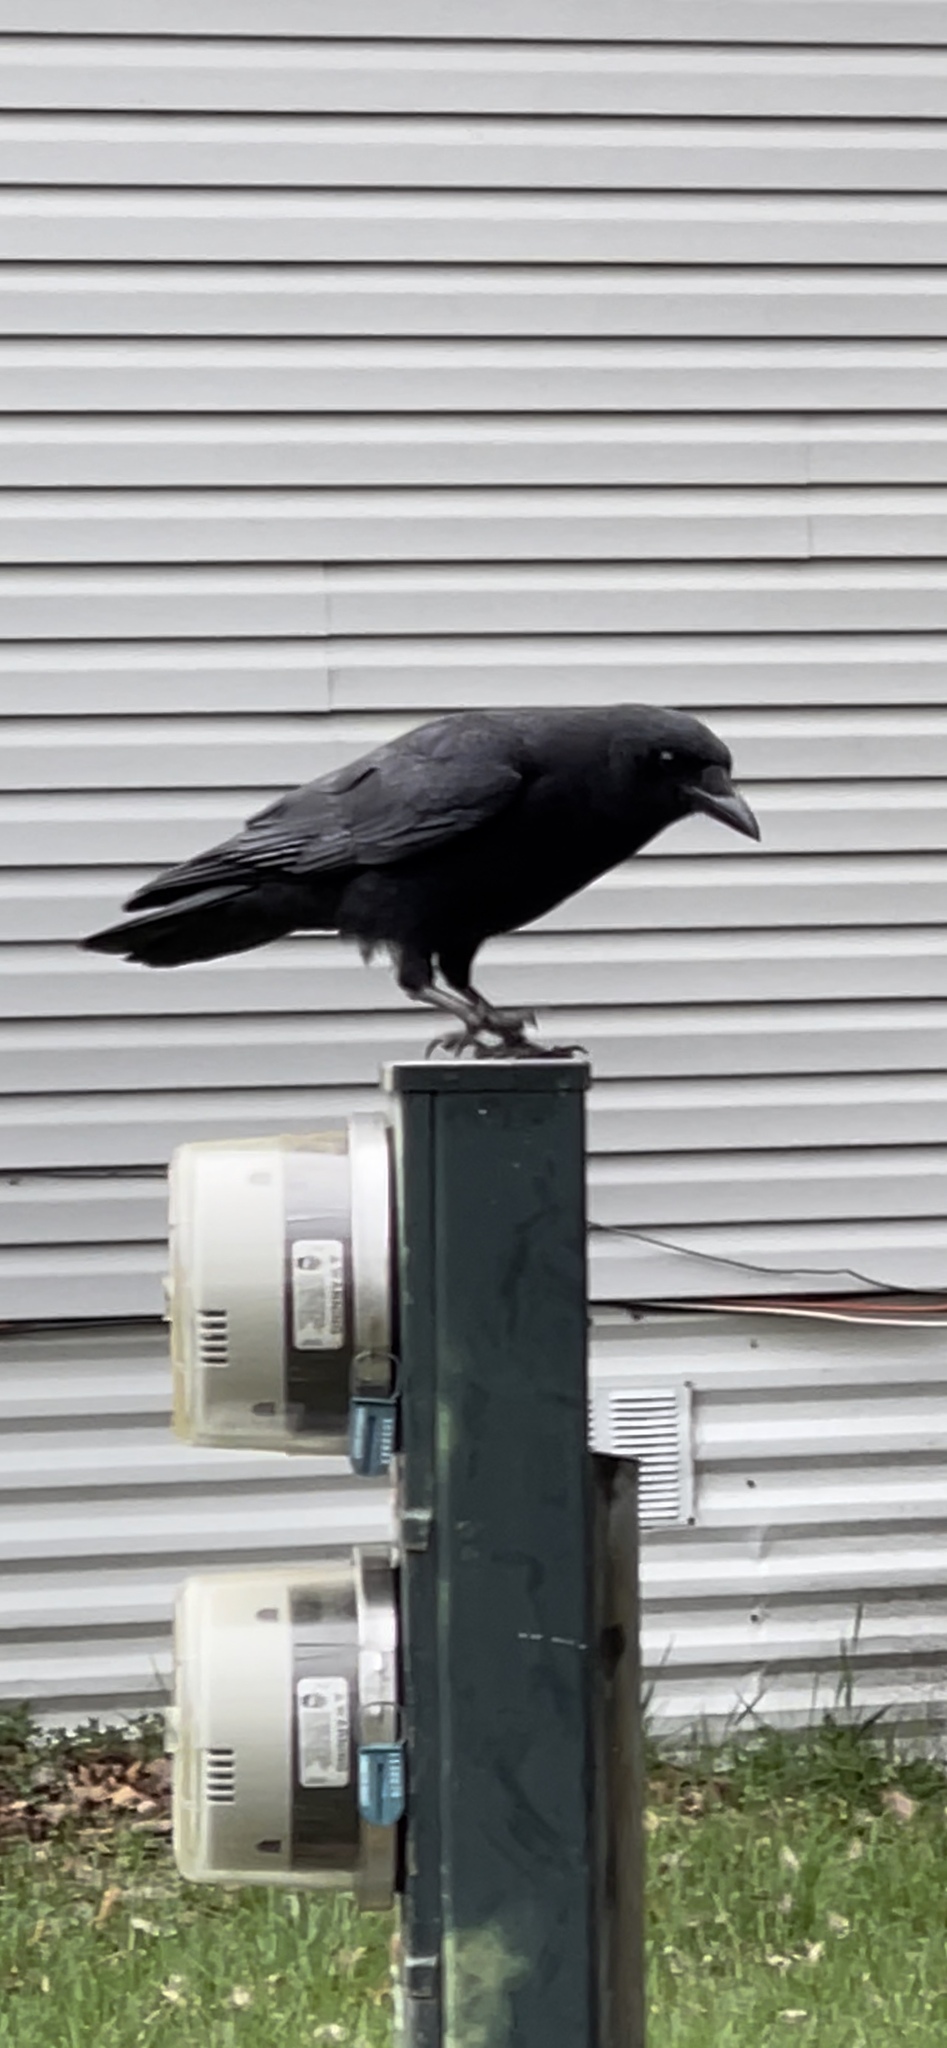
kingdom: Animalia
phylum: Chordata
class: Aves
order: Passeriformes
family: Corvidae
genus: Corvus
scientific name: Corvus brachyrhynchos
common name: American crow
